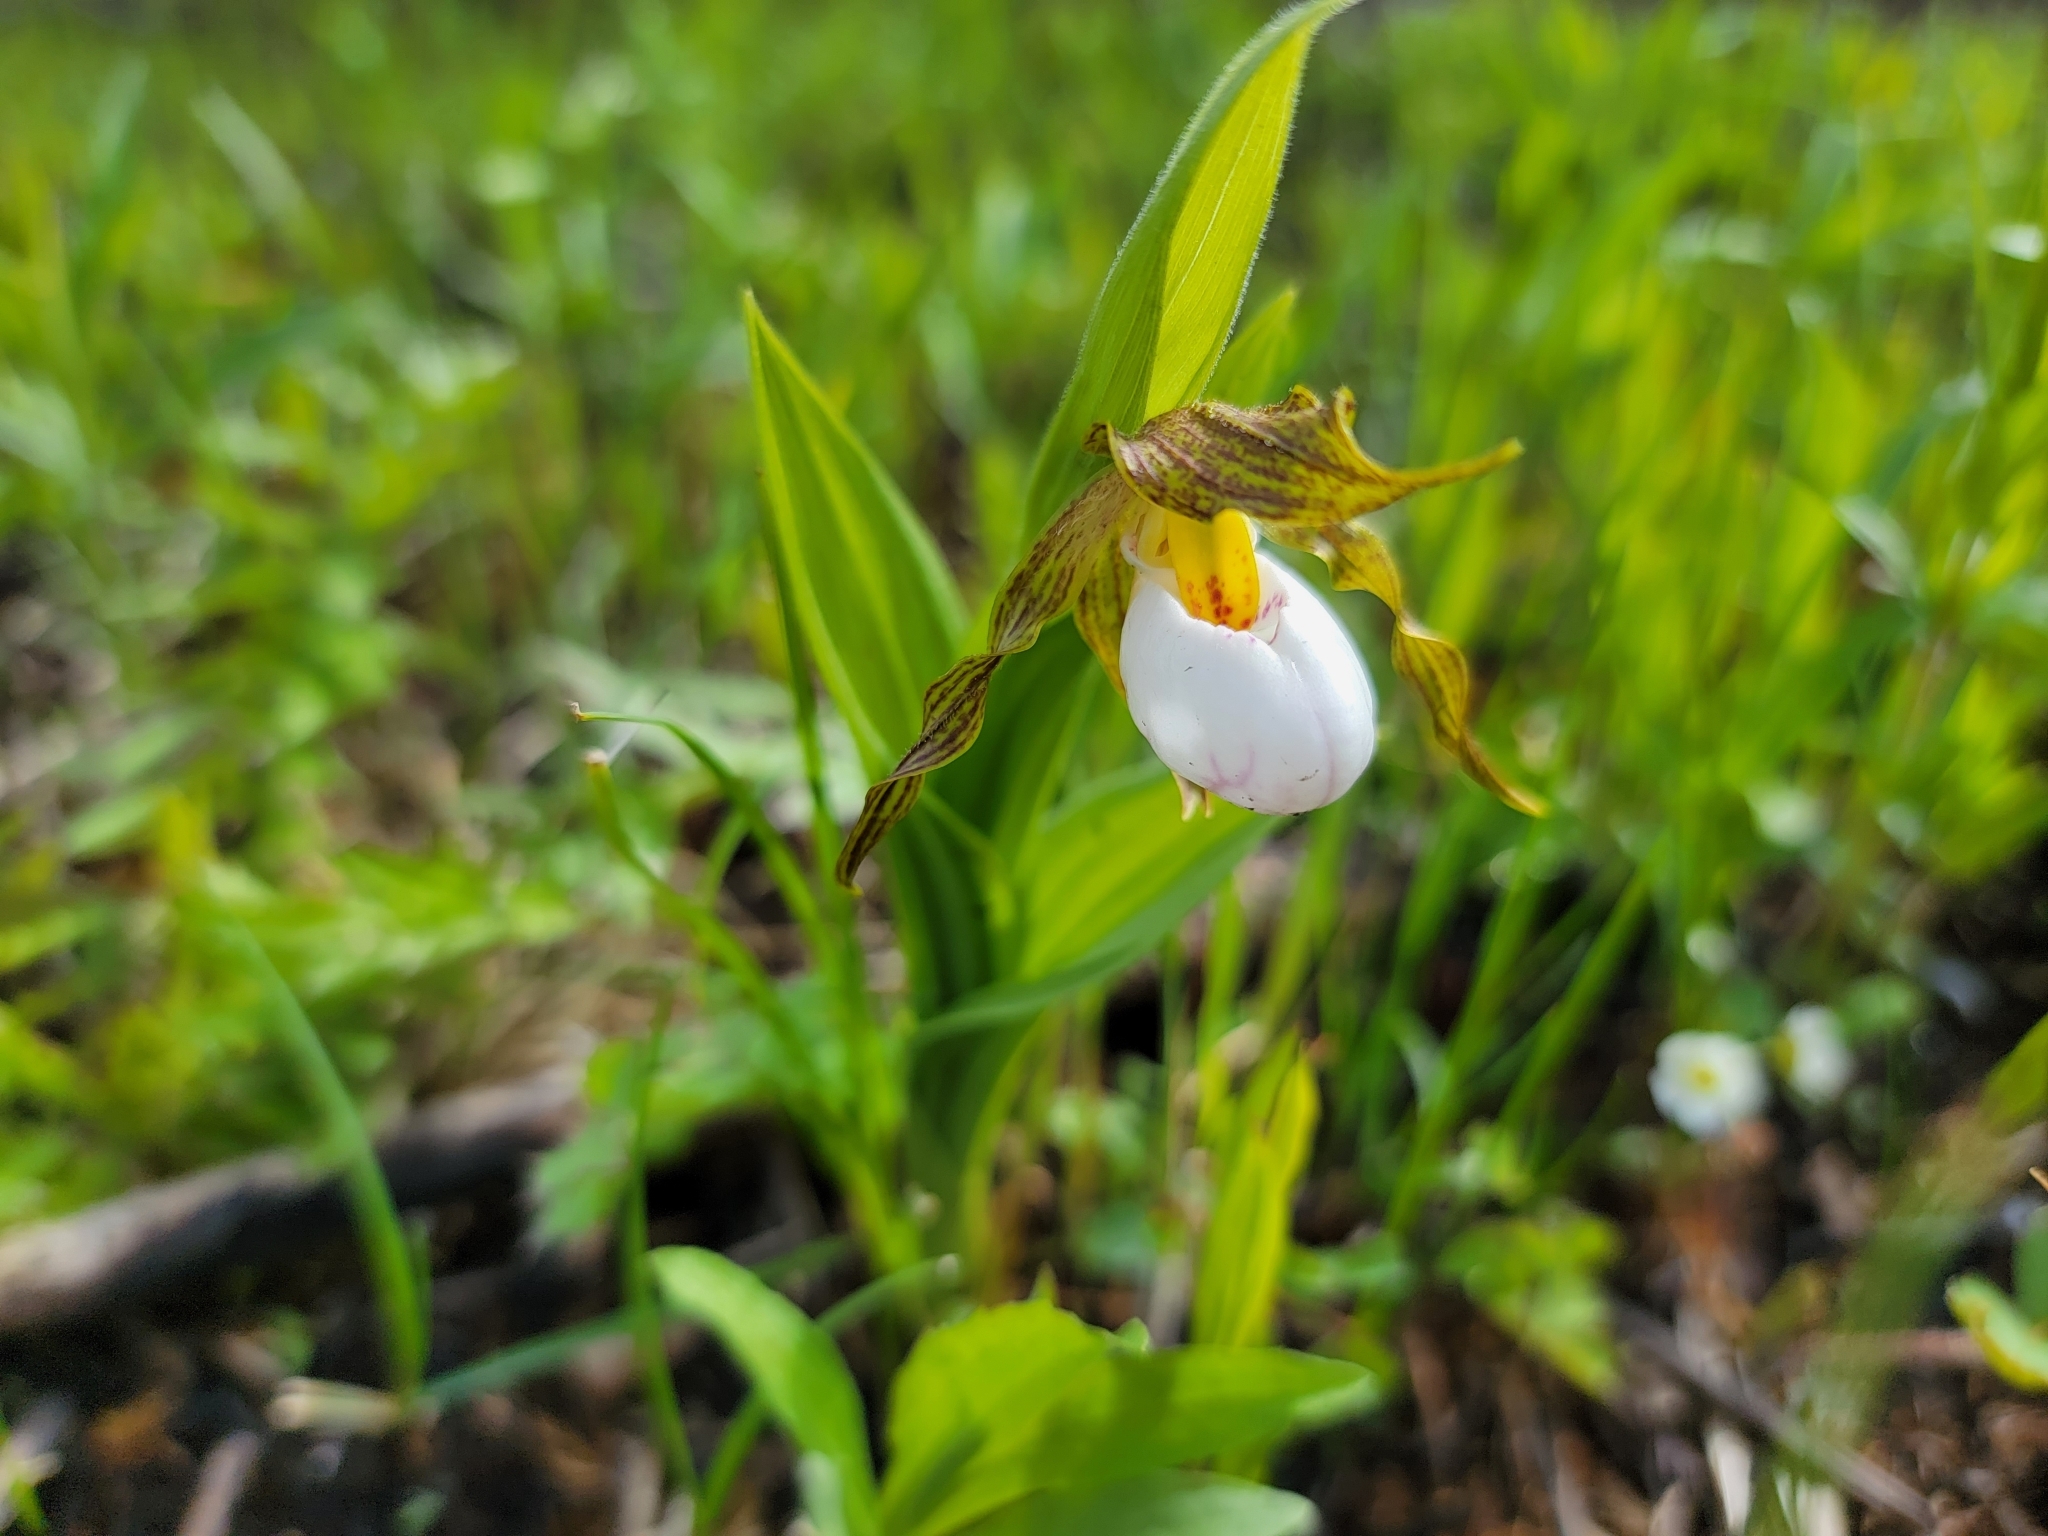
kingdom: Plantae
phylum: Tracheophyta
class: Liliopsida
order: Asparagales
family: Orchidaceae
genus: Cypripedium
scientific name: Cypripedium candidum
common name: White lady's-slipper
